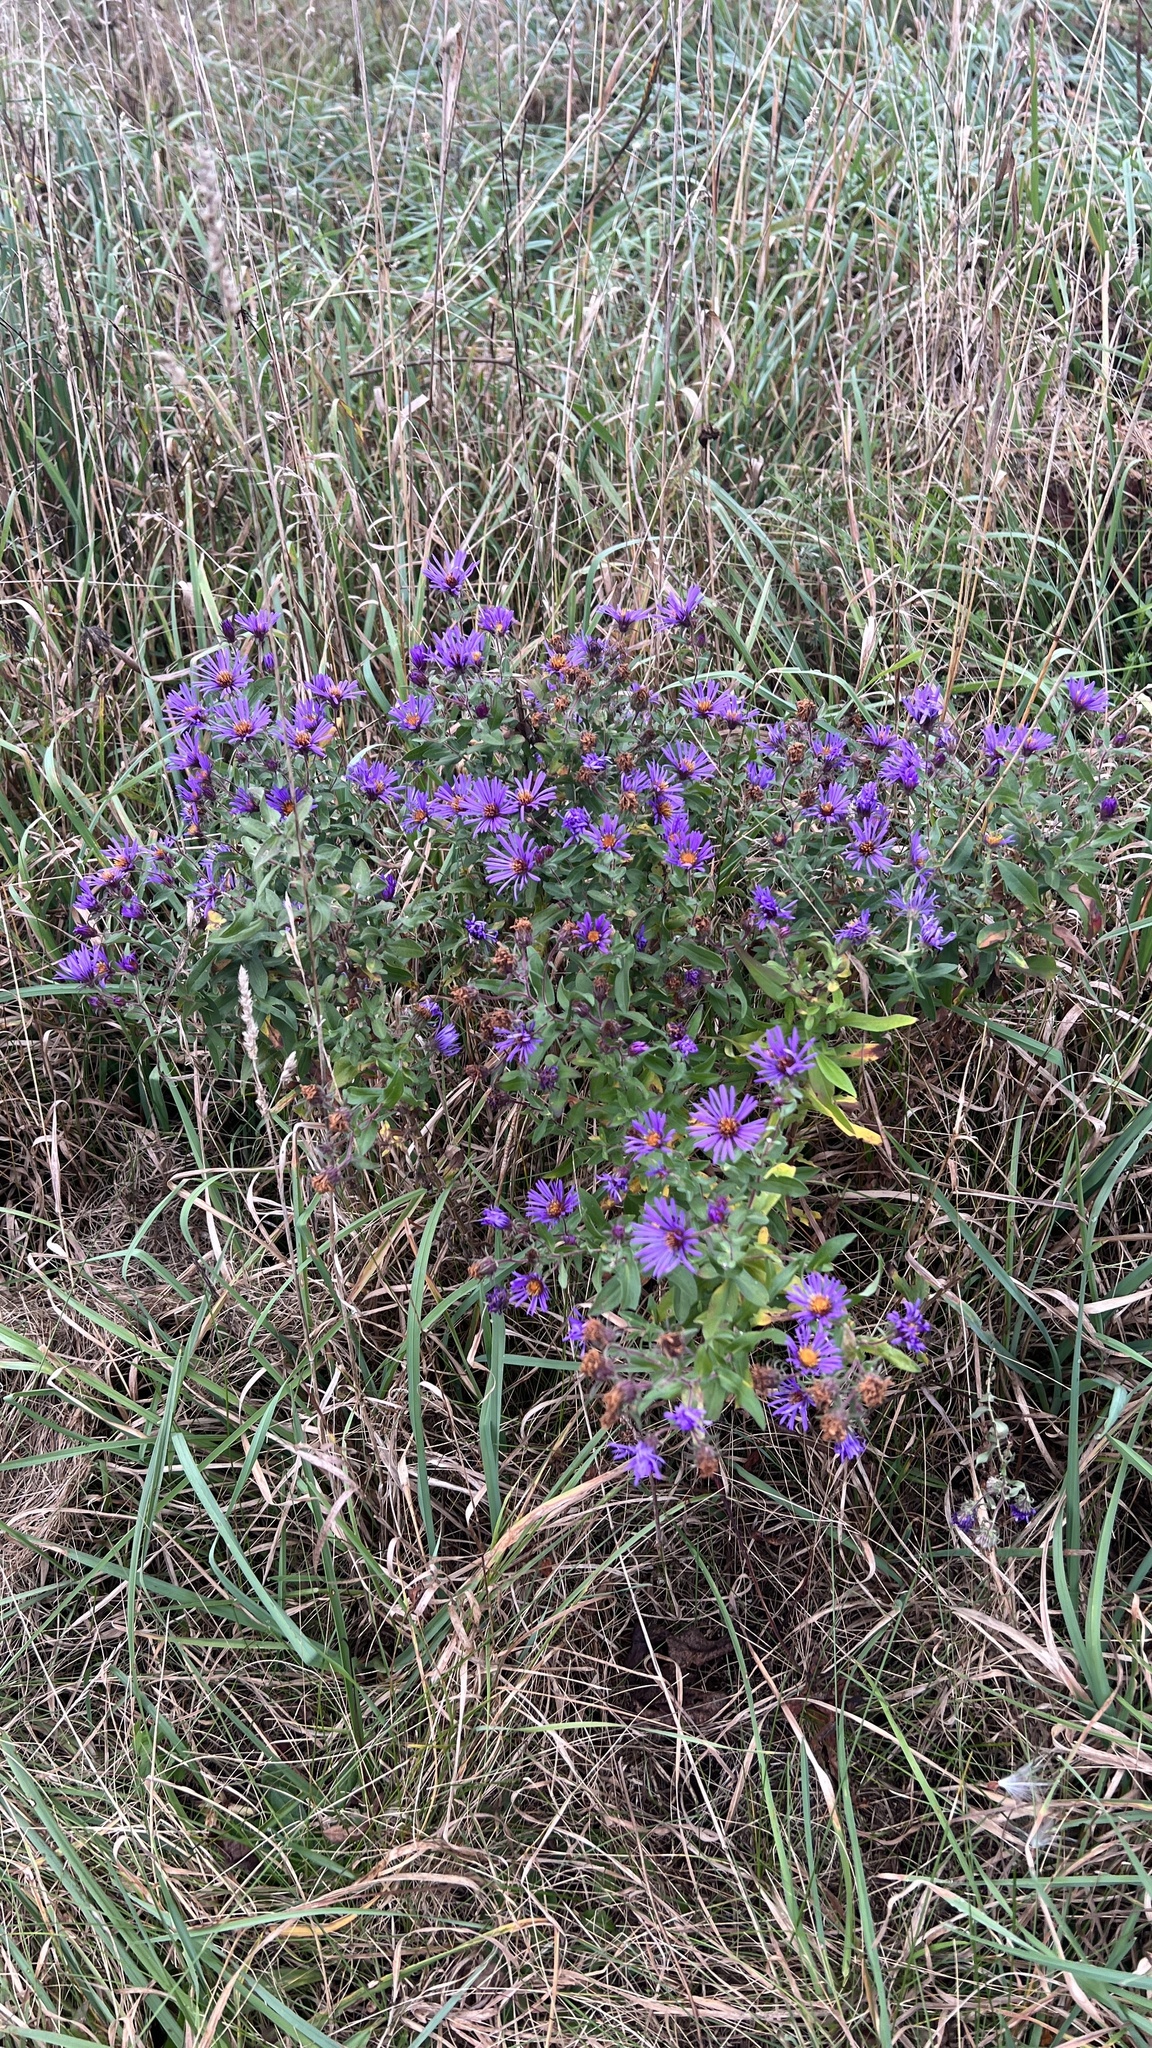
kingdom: Plantae
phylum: Tracheophyta
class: Magnoliopsida
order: Asterales
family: Asteraceae
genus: Symphyotrichum
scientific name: Symphyotrichum novae-angliae
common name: Michaelmas daisy
